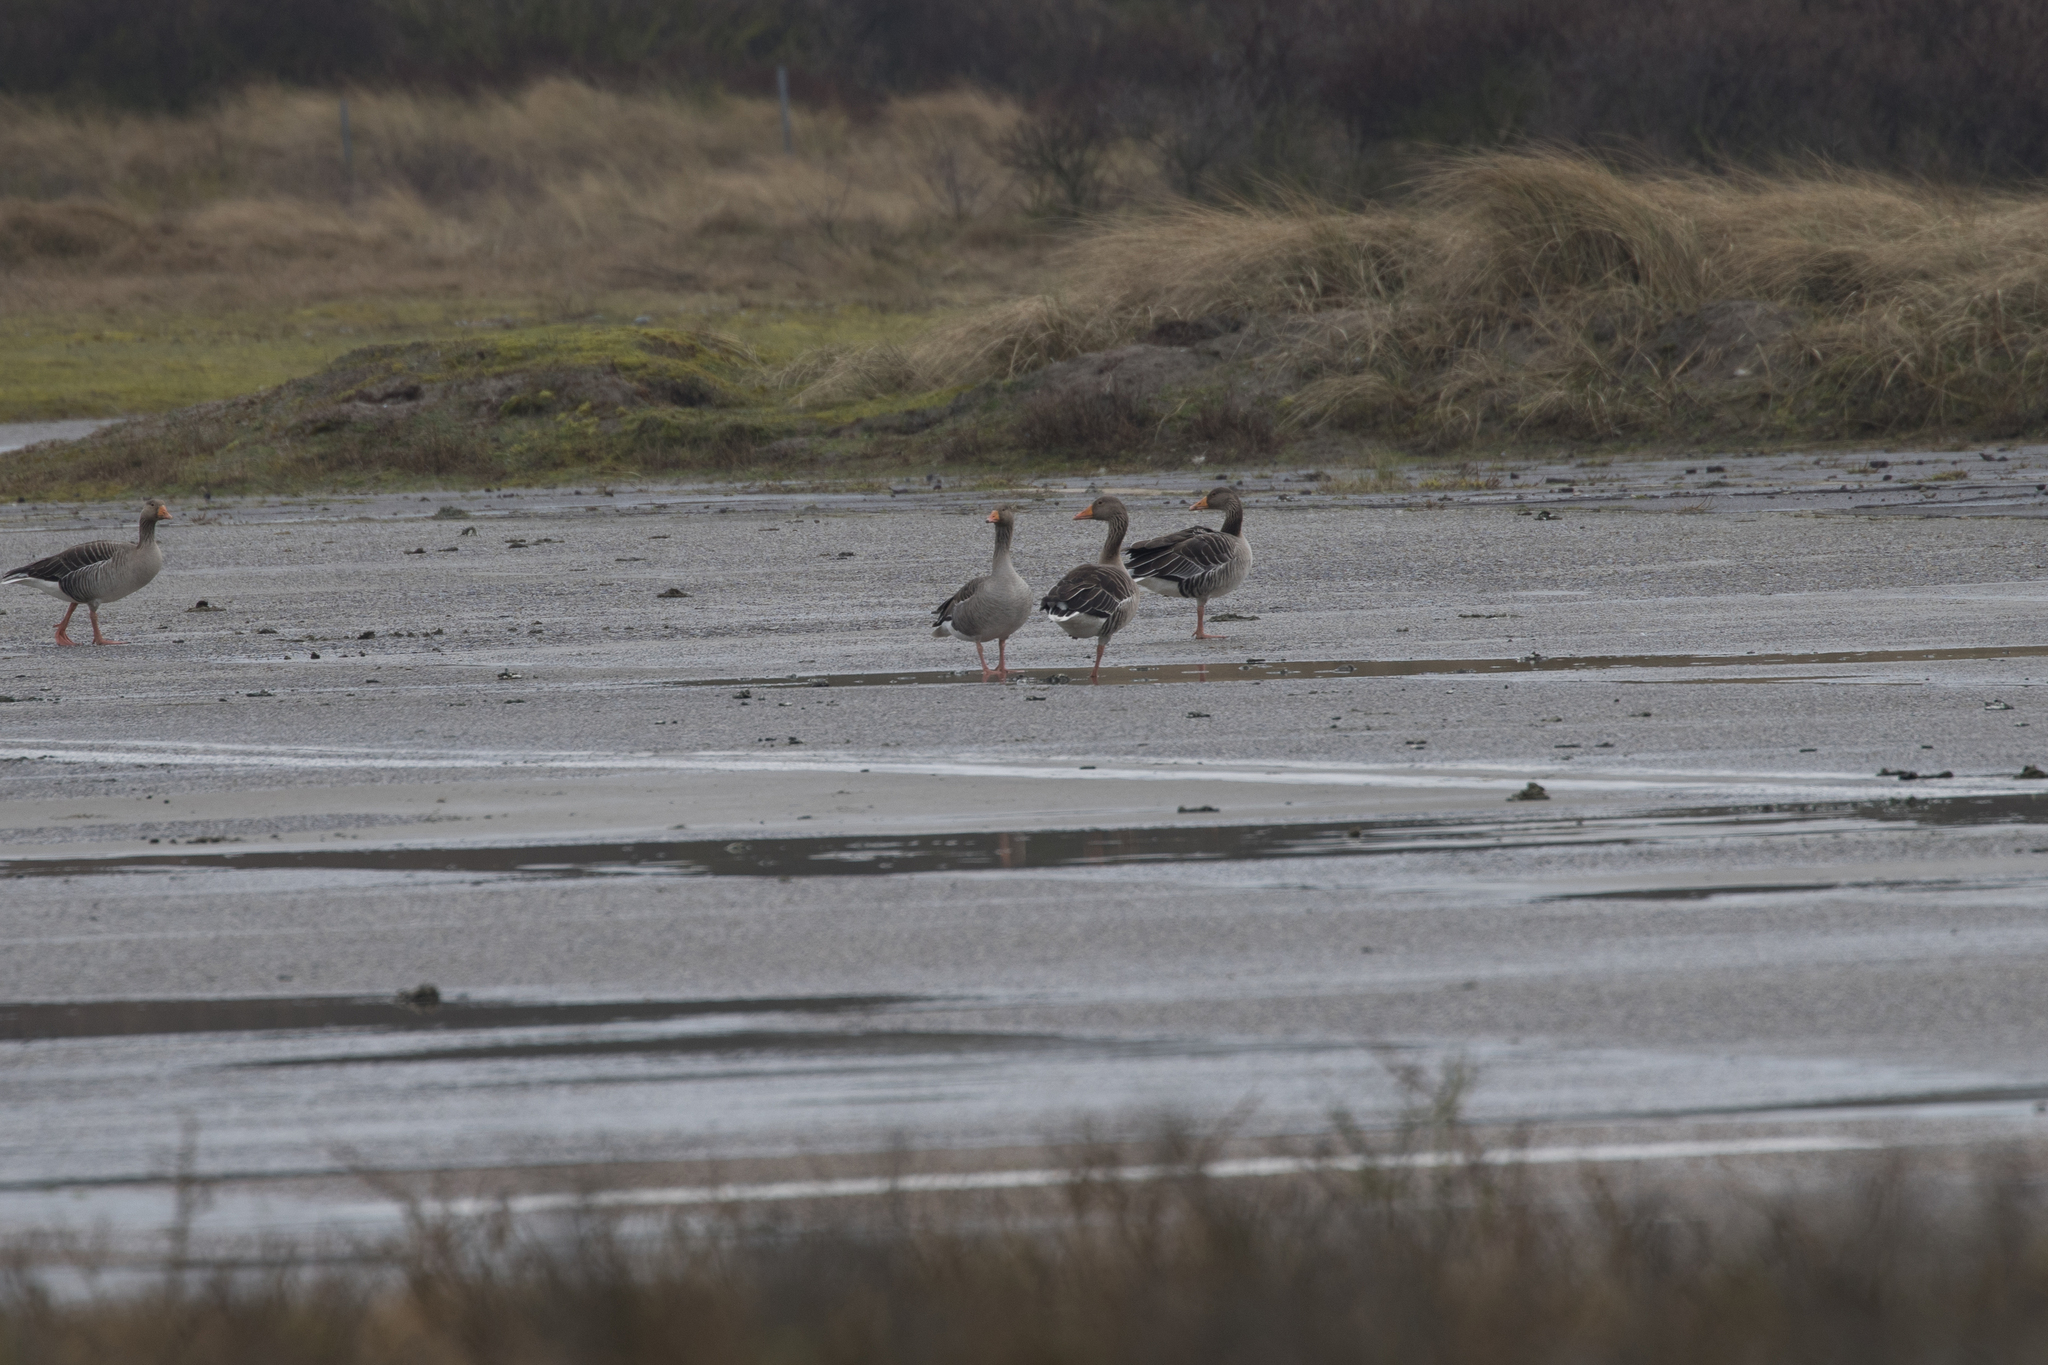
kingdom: Animalia
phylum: Chordata
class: Aves
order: Anseriformes
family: Anatidae
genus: Anser
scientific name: Anser anser
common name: Greylag goose
